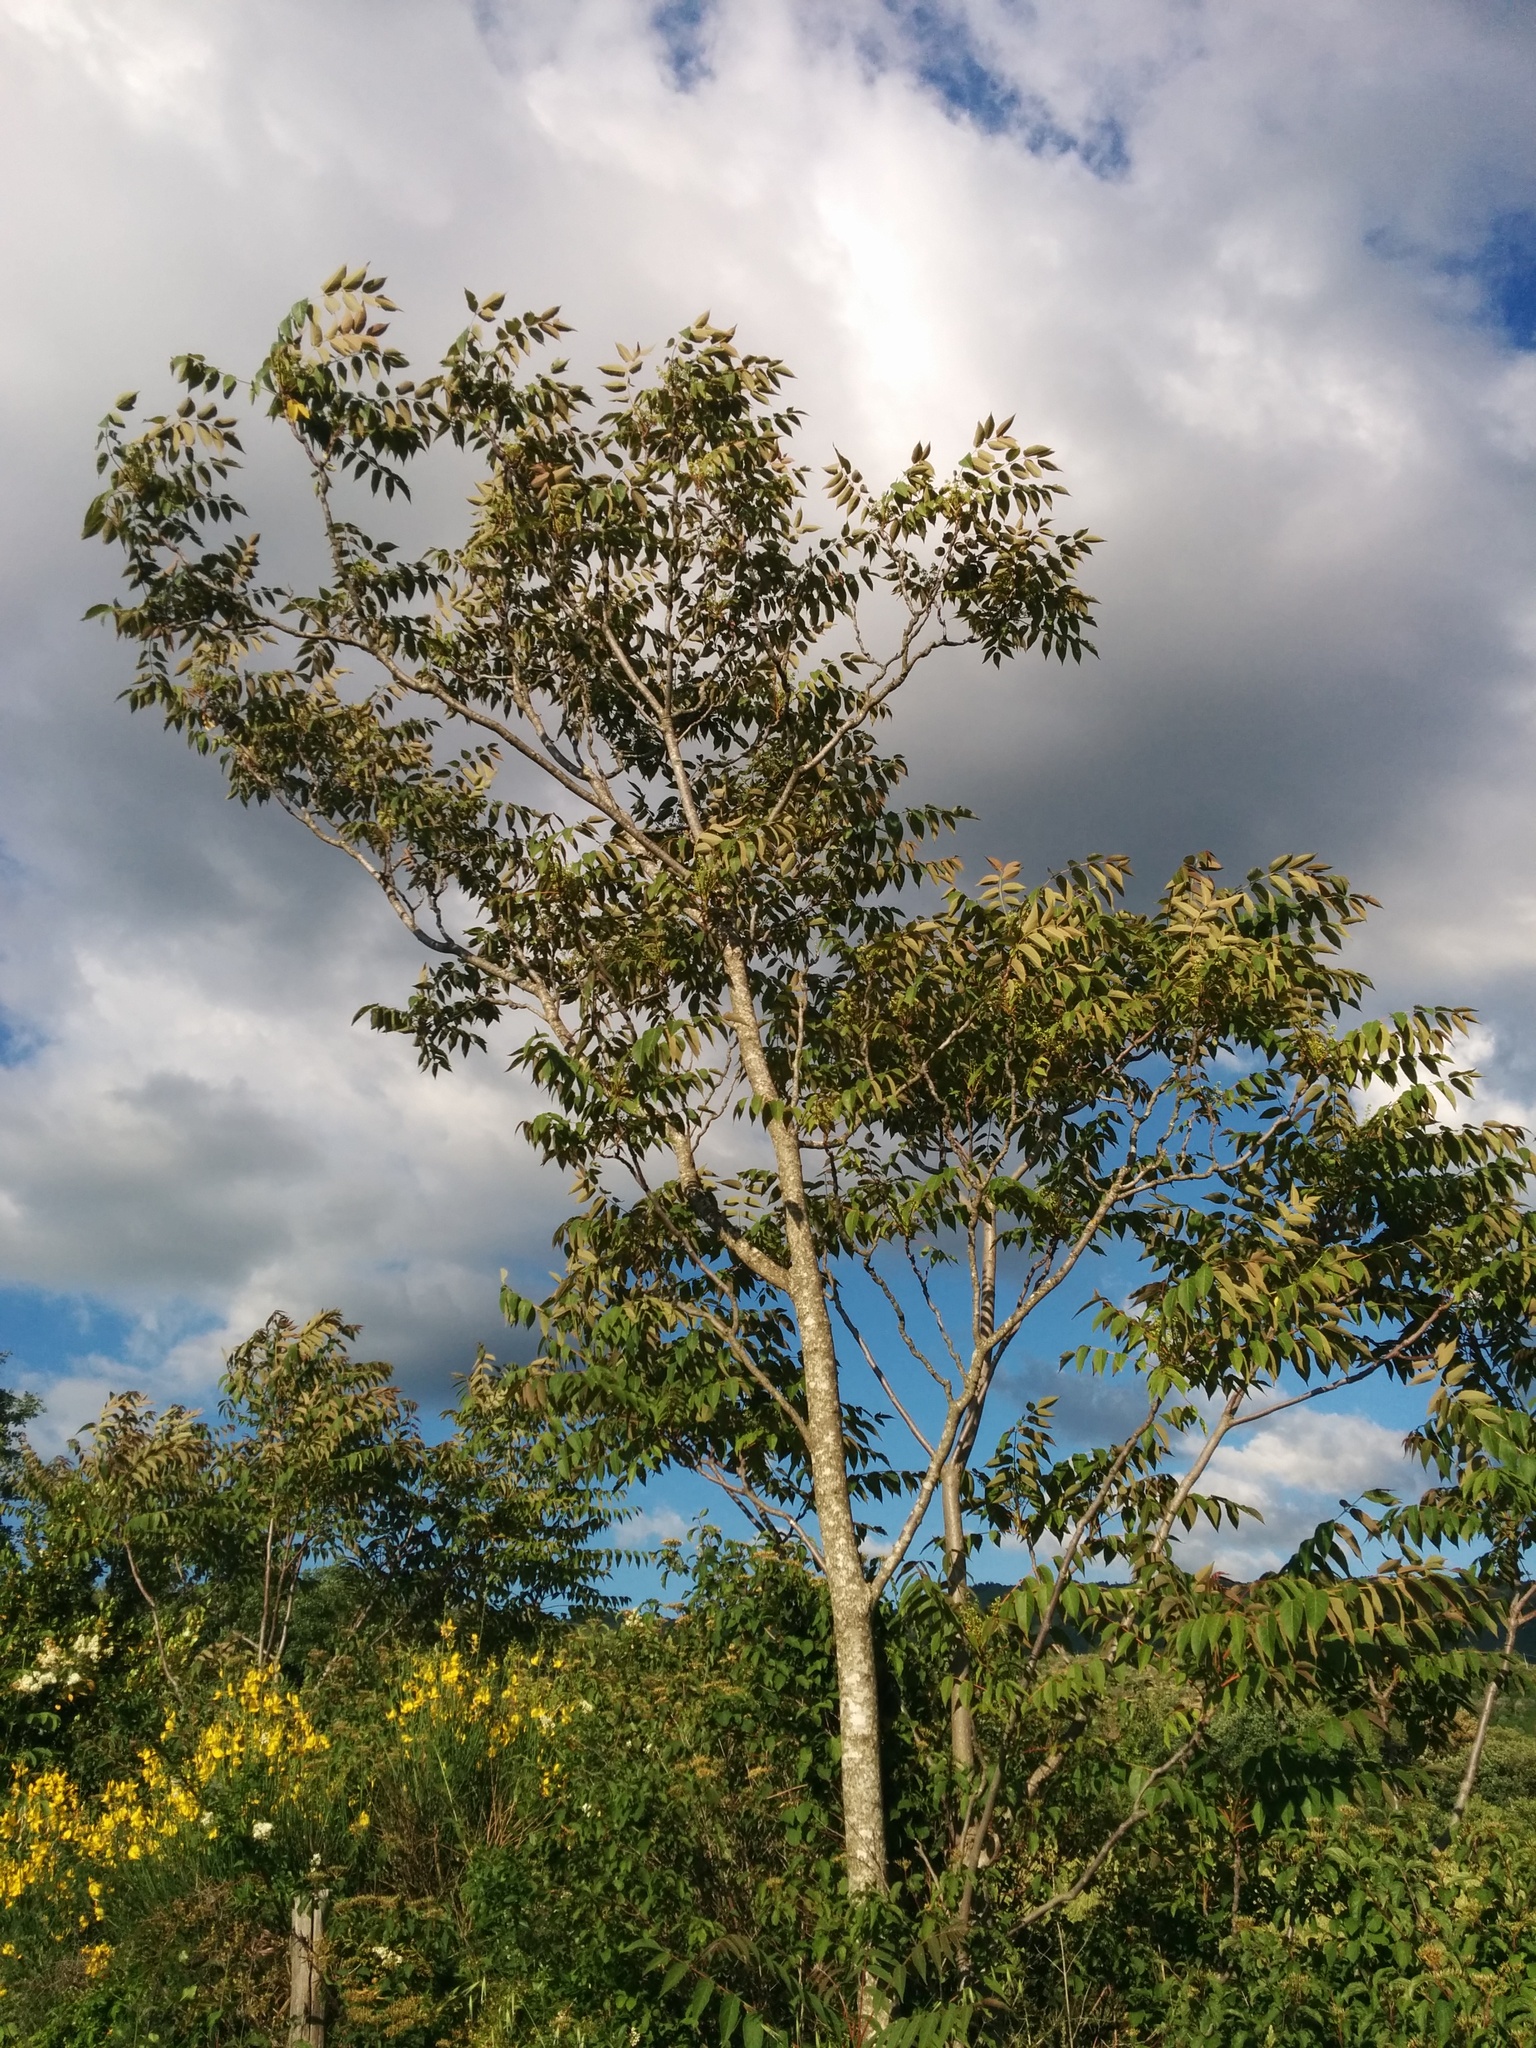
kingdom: Plantae
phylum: Tracheophyta
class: Magnoliopsida
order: Sapindales
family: Simaroubaceae
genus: Ailanthus
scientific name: Ailanthus altissima
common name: Tree-of-heaven
